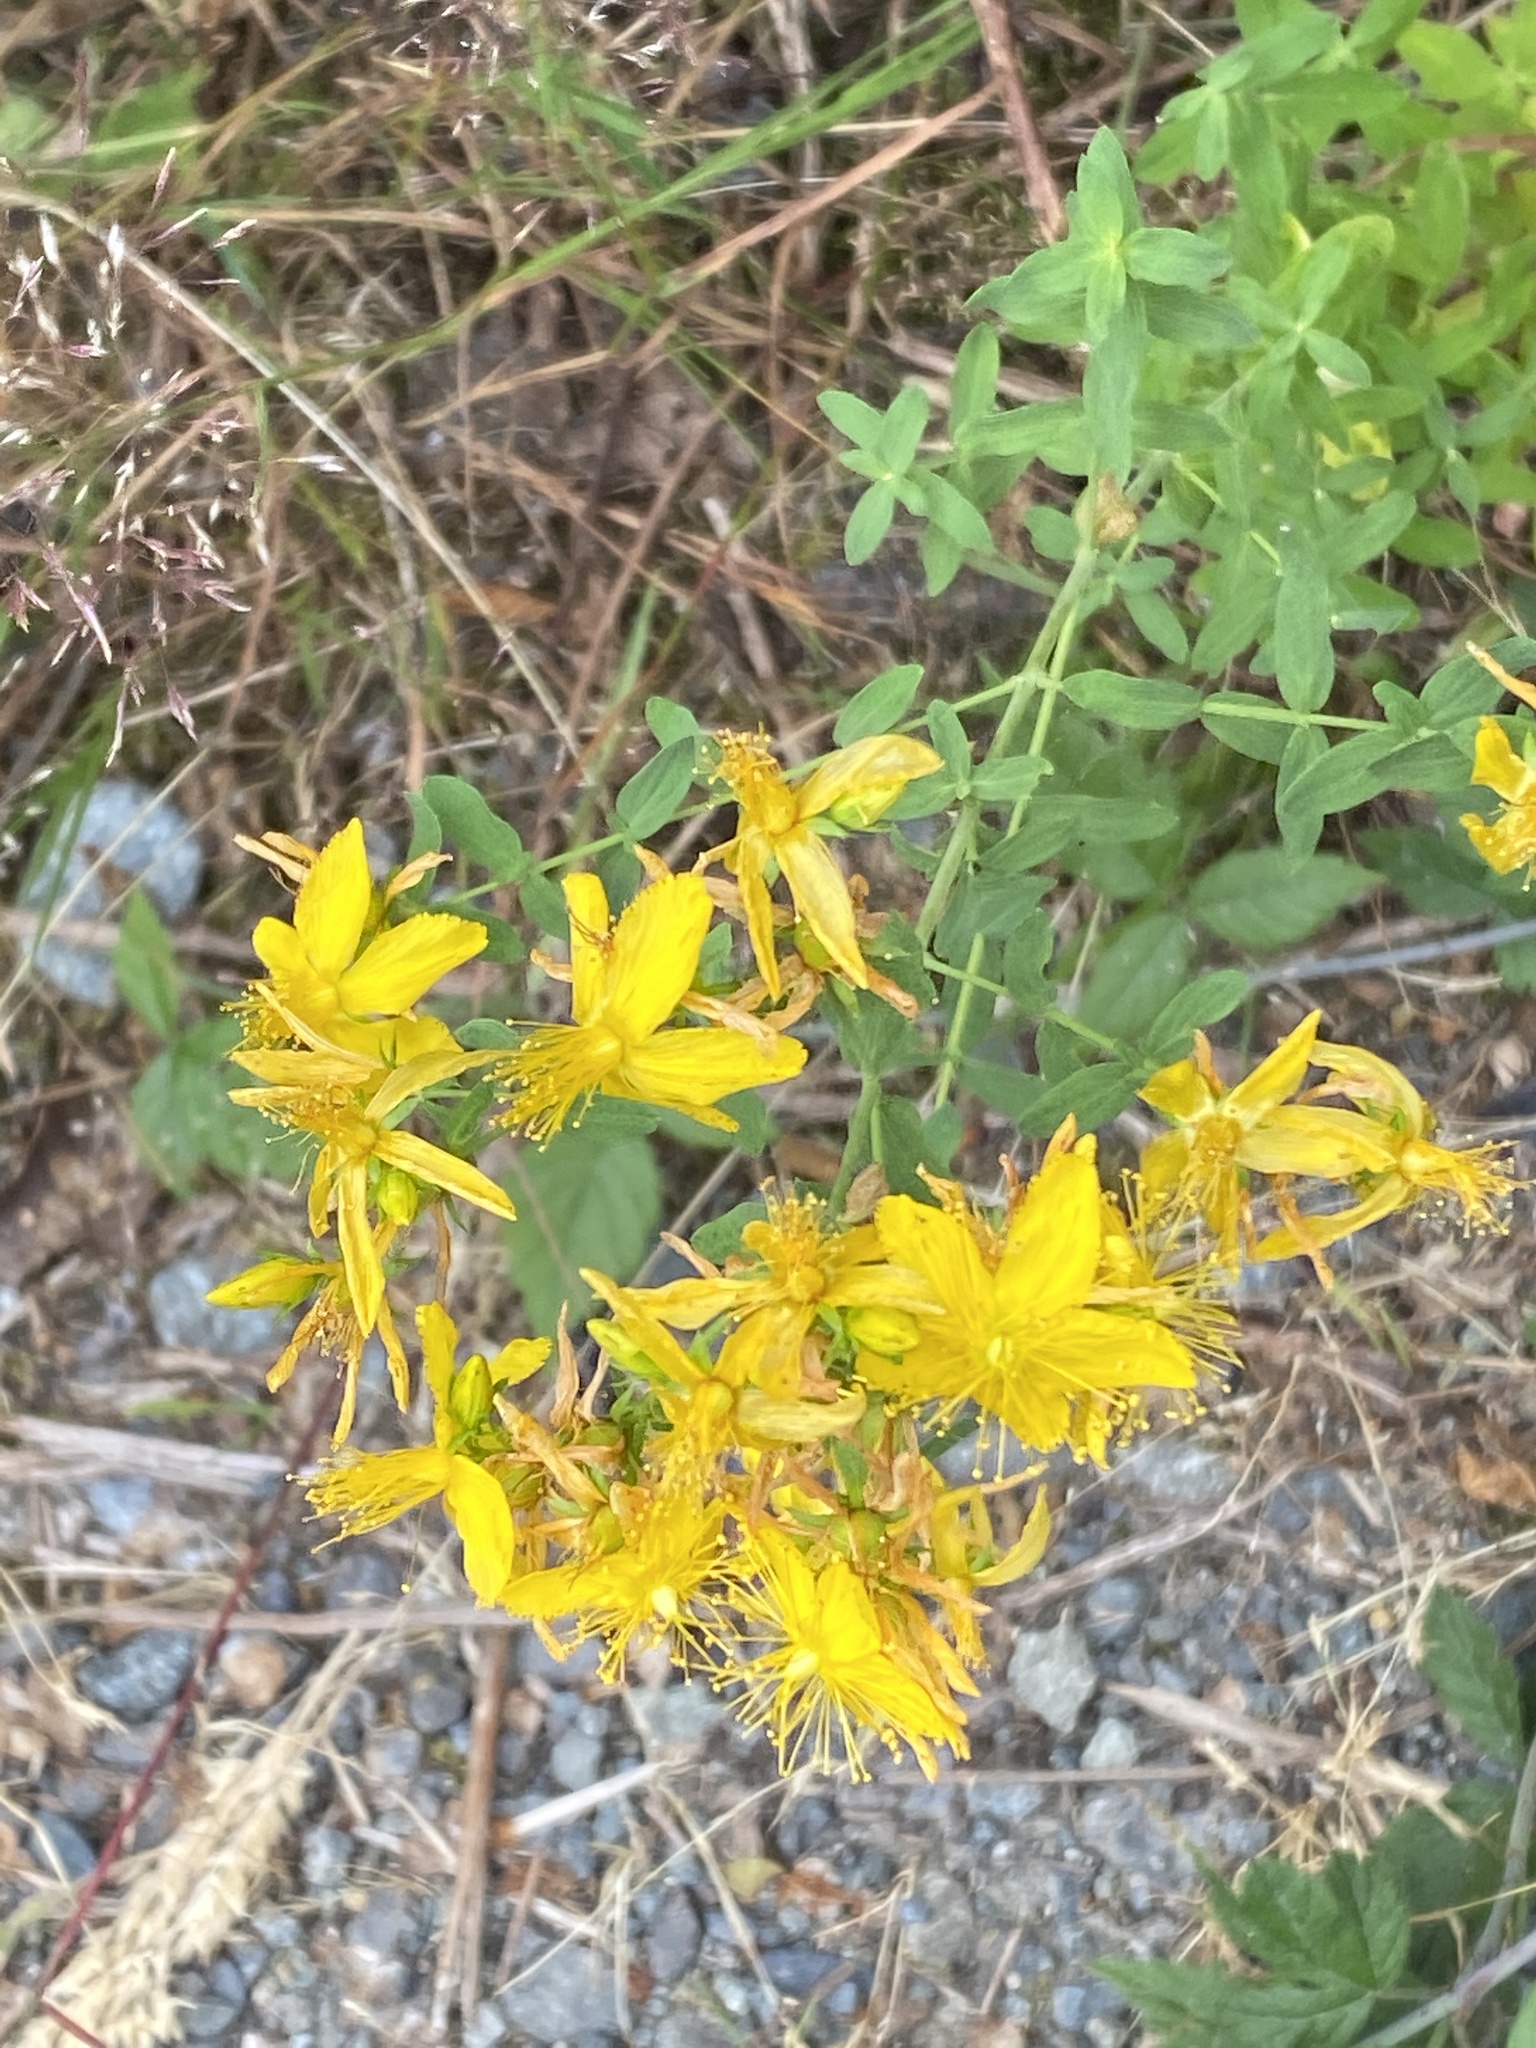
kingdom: Plantae
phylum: Tracheophyta
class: Magnoliopsida
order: Malpighiales
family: Hypericaceae
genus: Hypericum
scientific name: Hypericum perforatum
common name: Common st. johnswort
